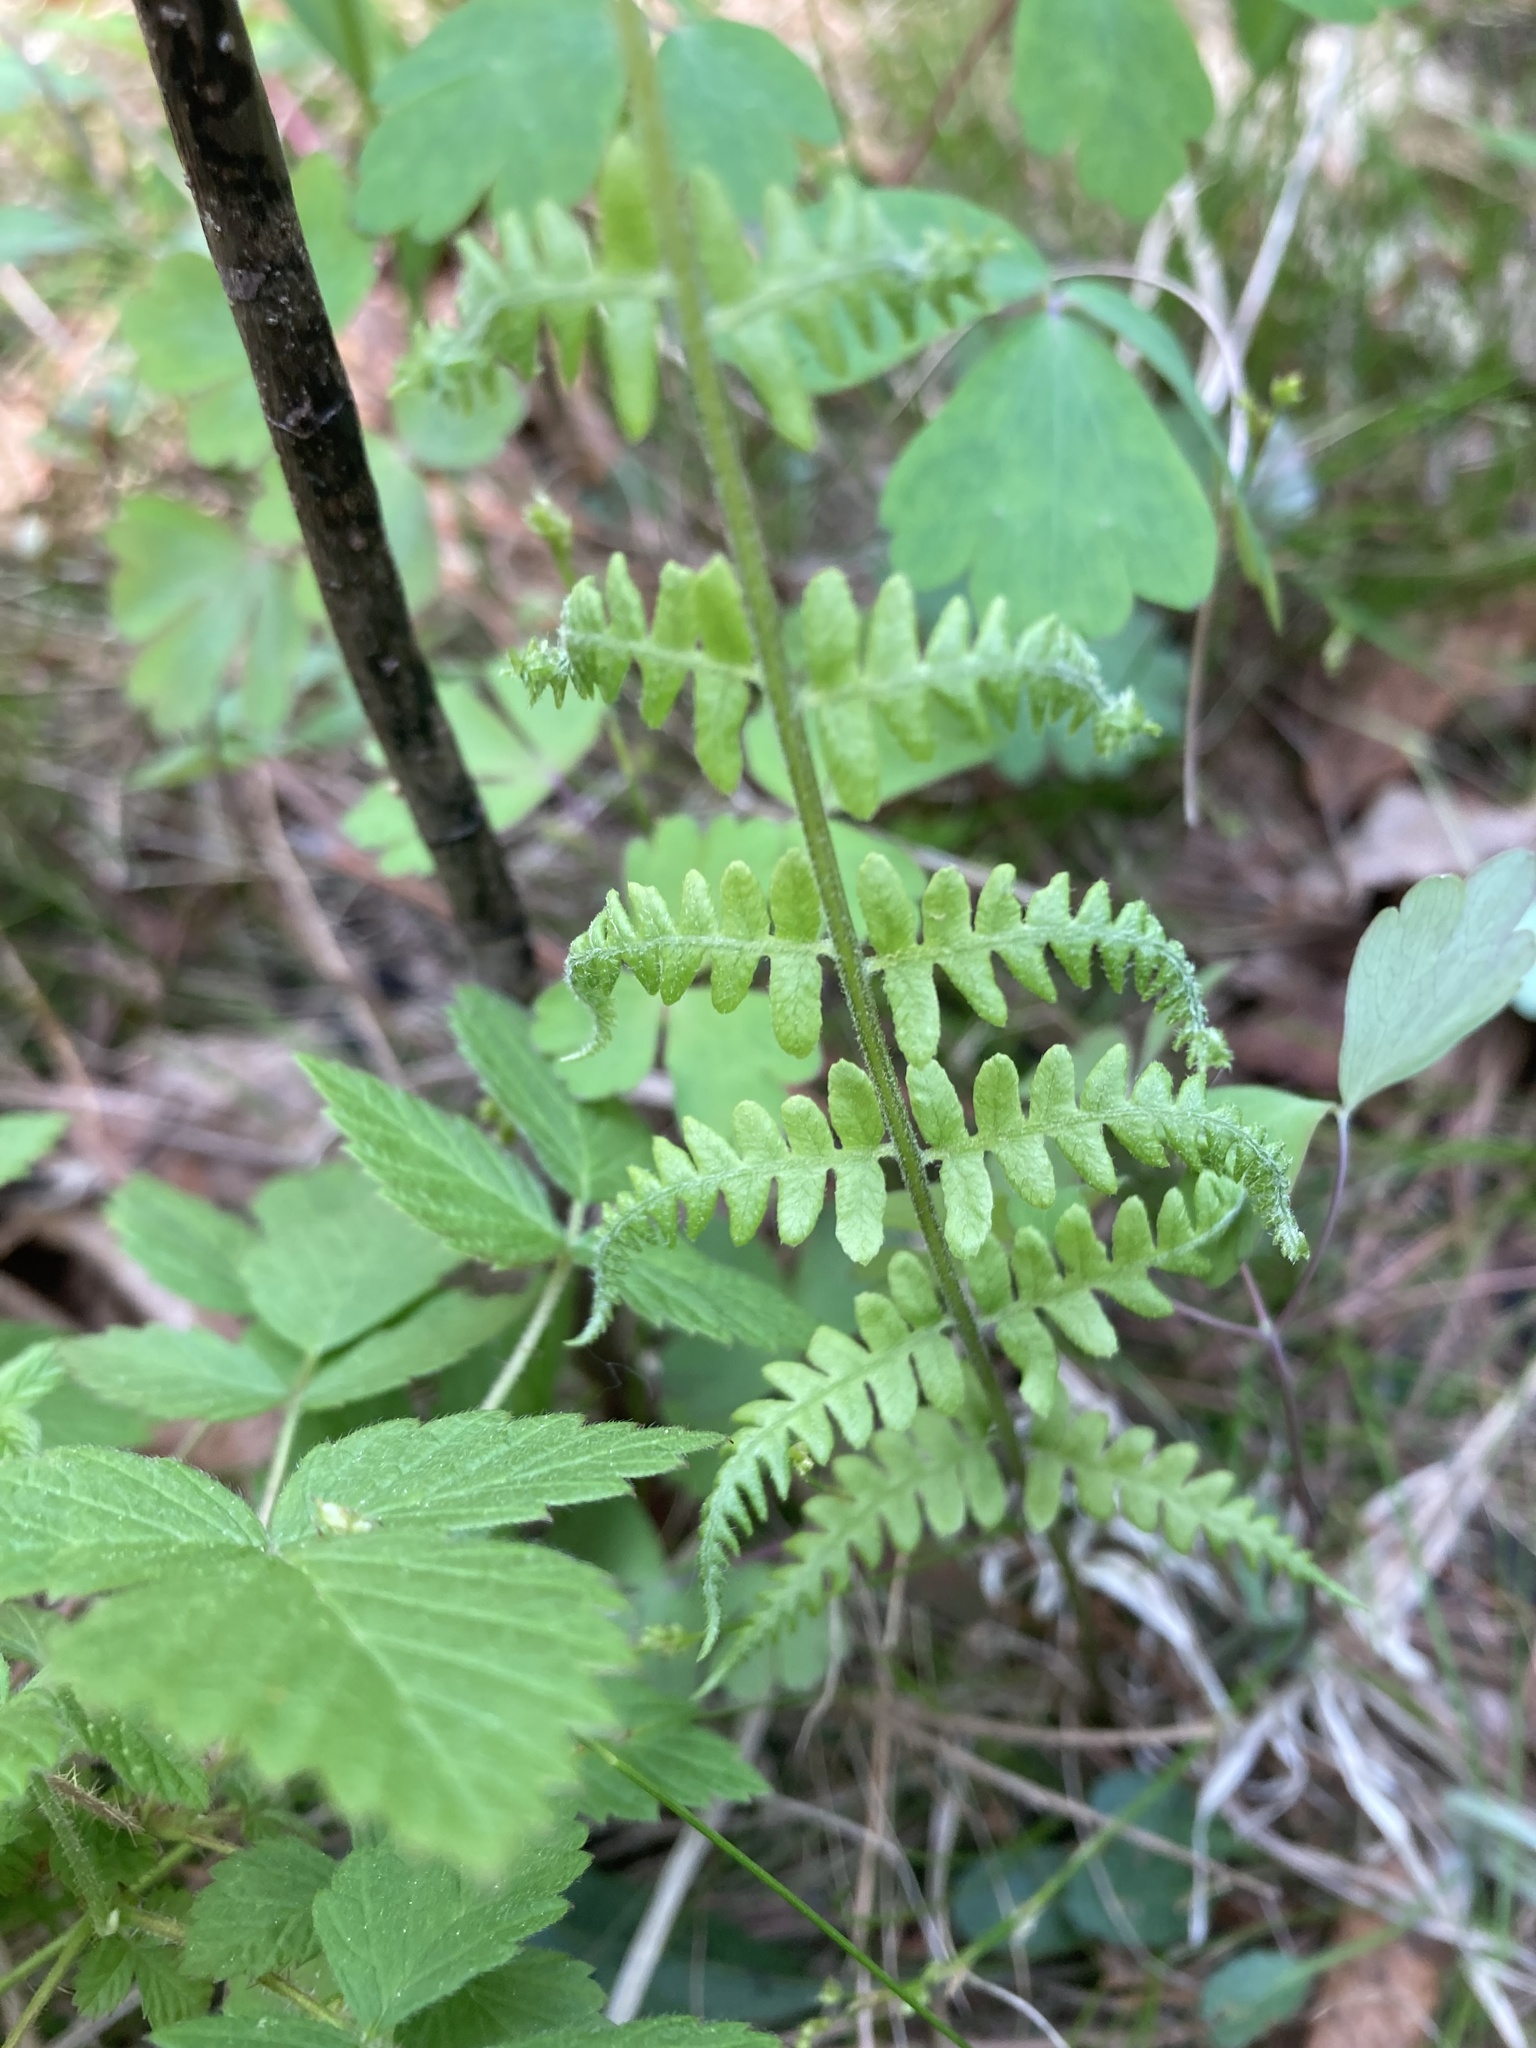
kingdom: Plantae
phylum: Tracheophyta
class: Polypodiopsida
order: Polypodiales
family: Thelypteridaceae
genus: Thelypteris
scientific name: Thelypteris palustris
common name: Marsh fern
